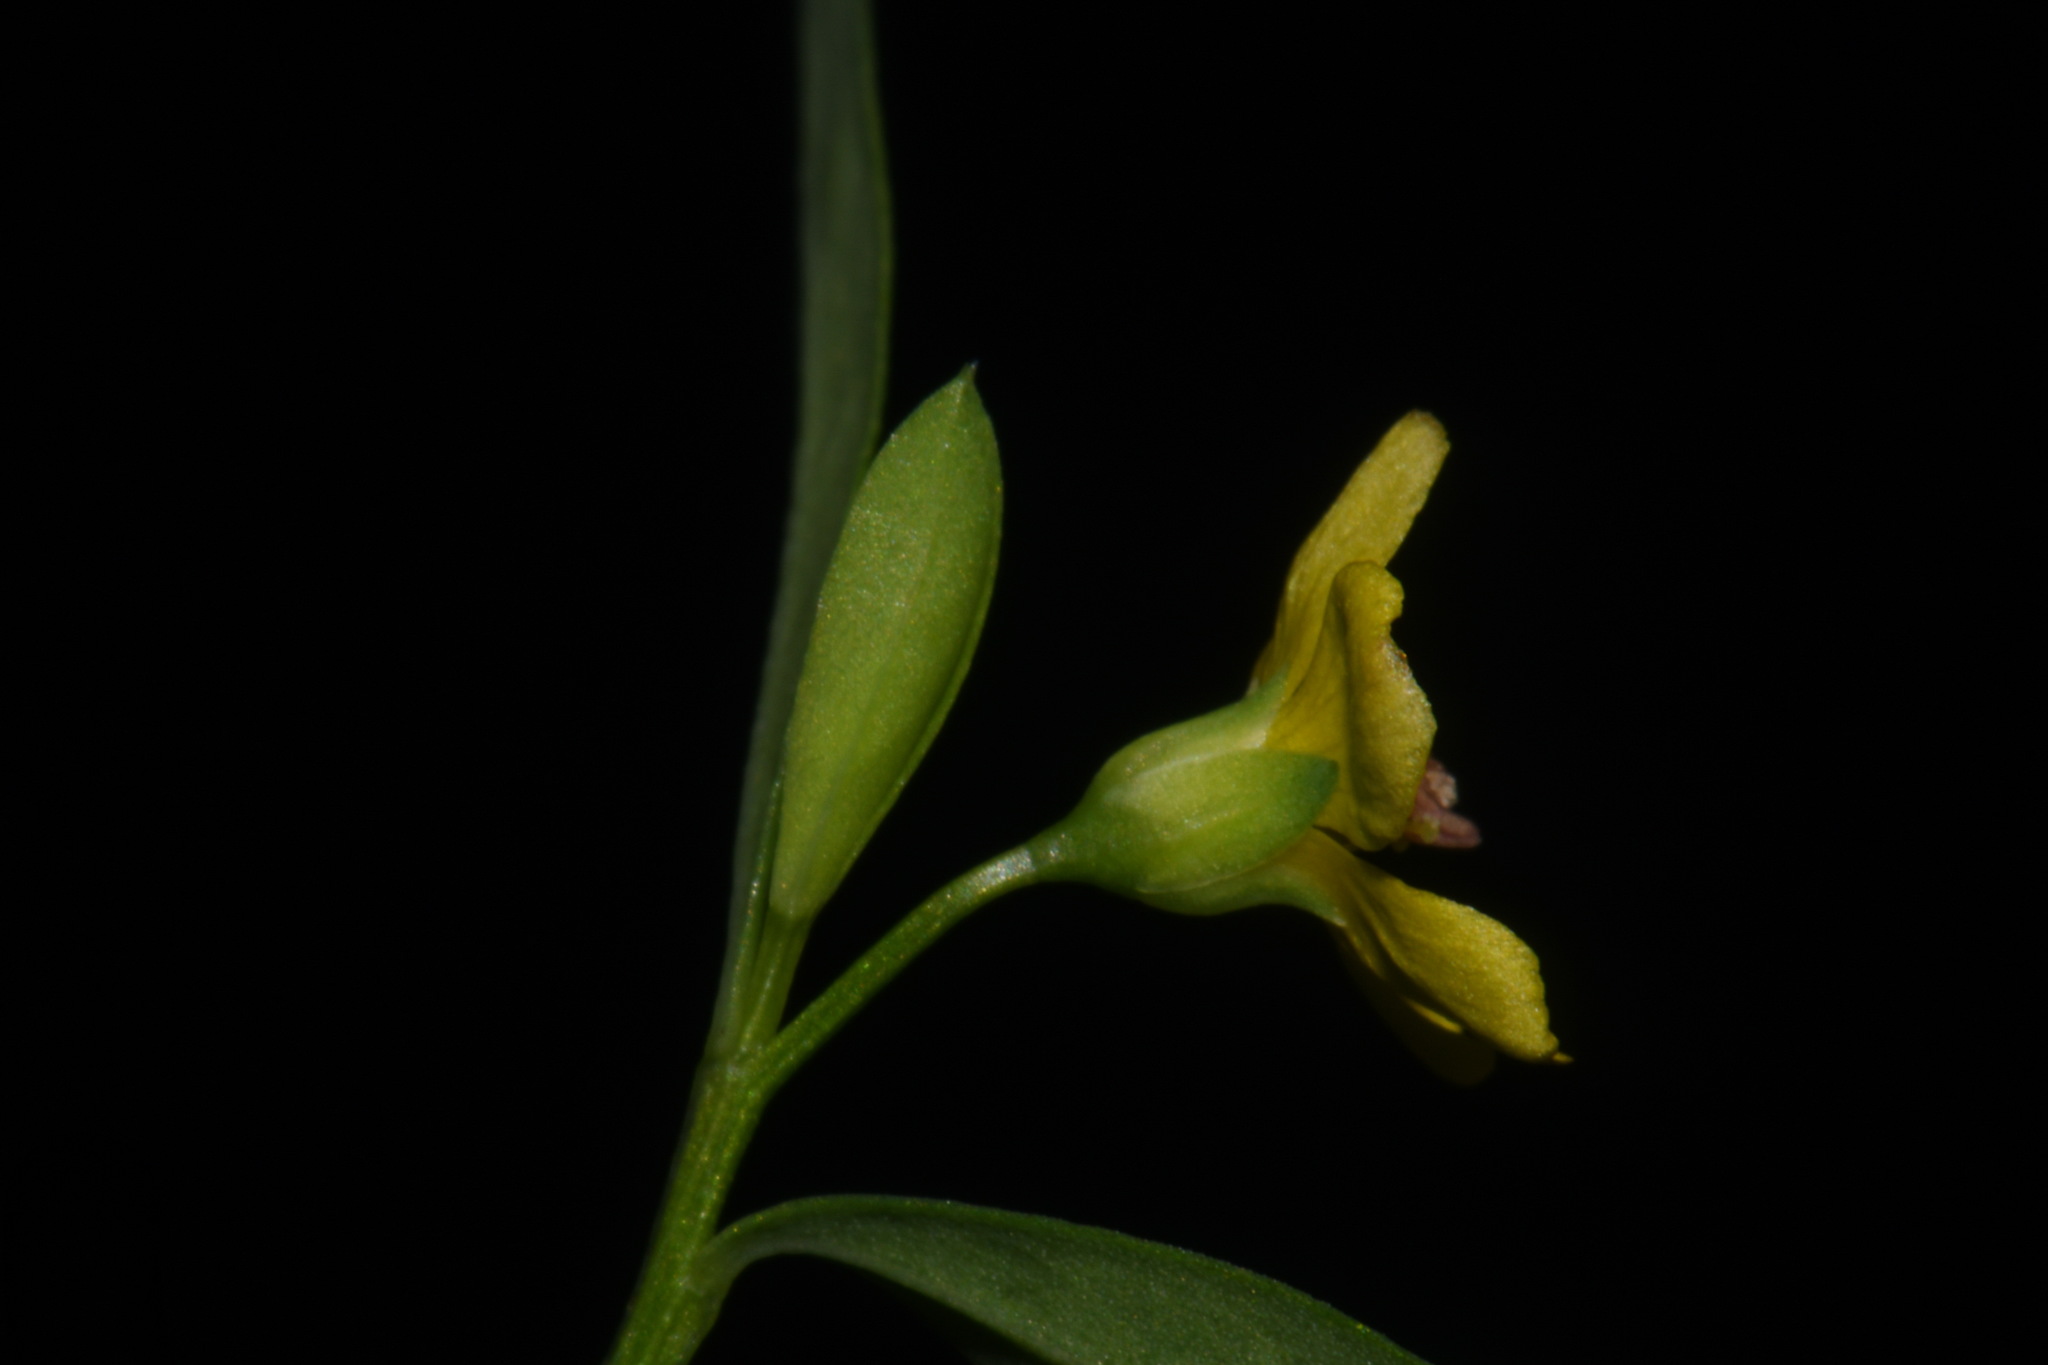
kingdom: Plantae
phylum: Tracheophyta
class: Magnoliopsida
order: Malpighiales
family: Linaceae
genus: Linum
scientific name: Linum medium
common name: Stiff yellow flax
